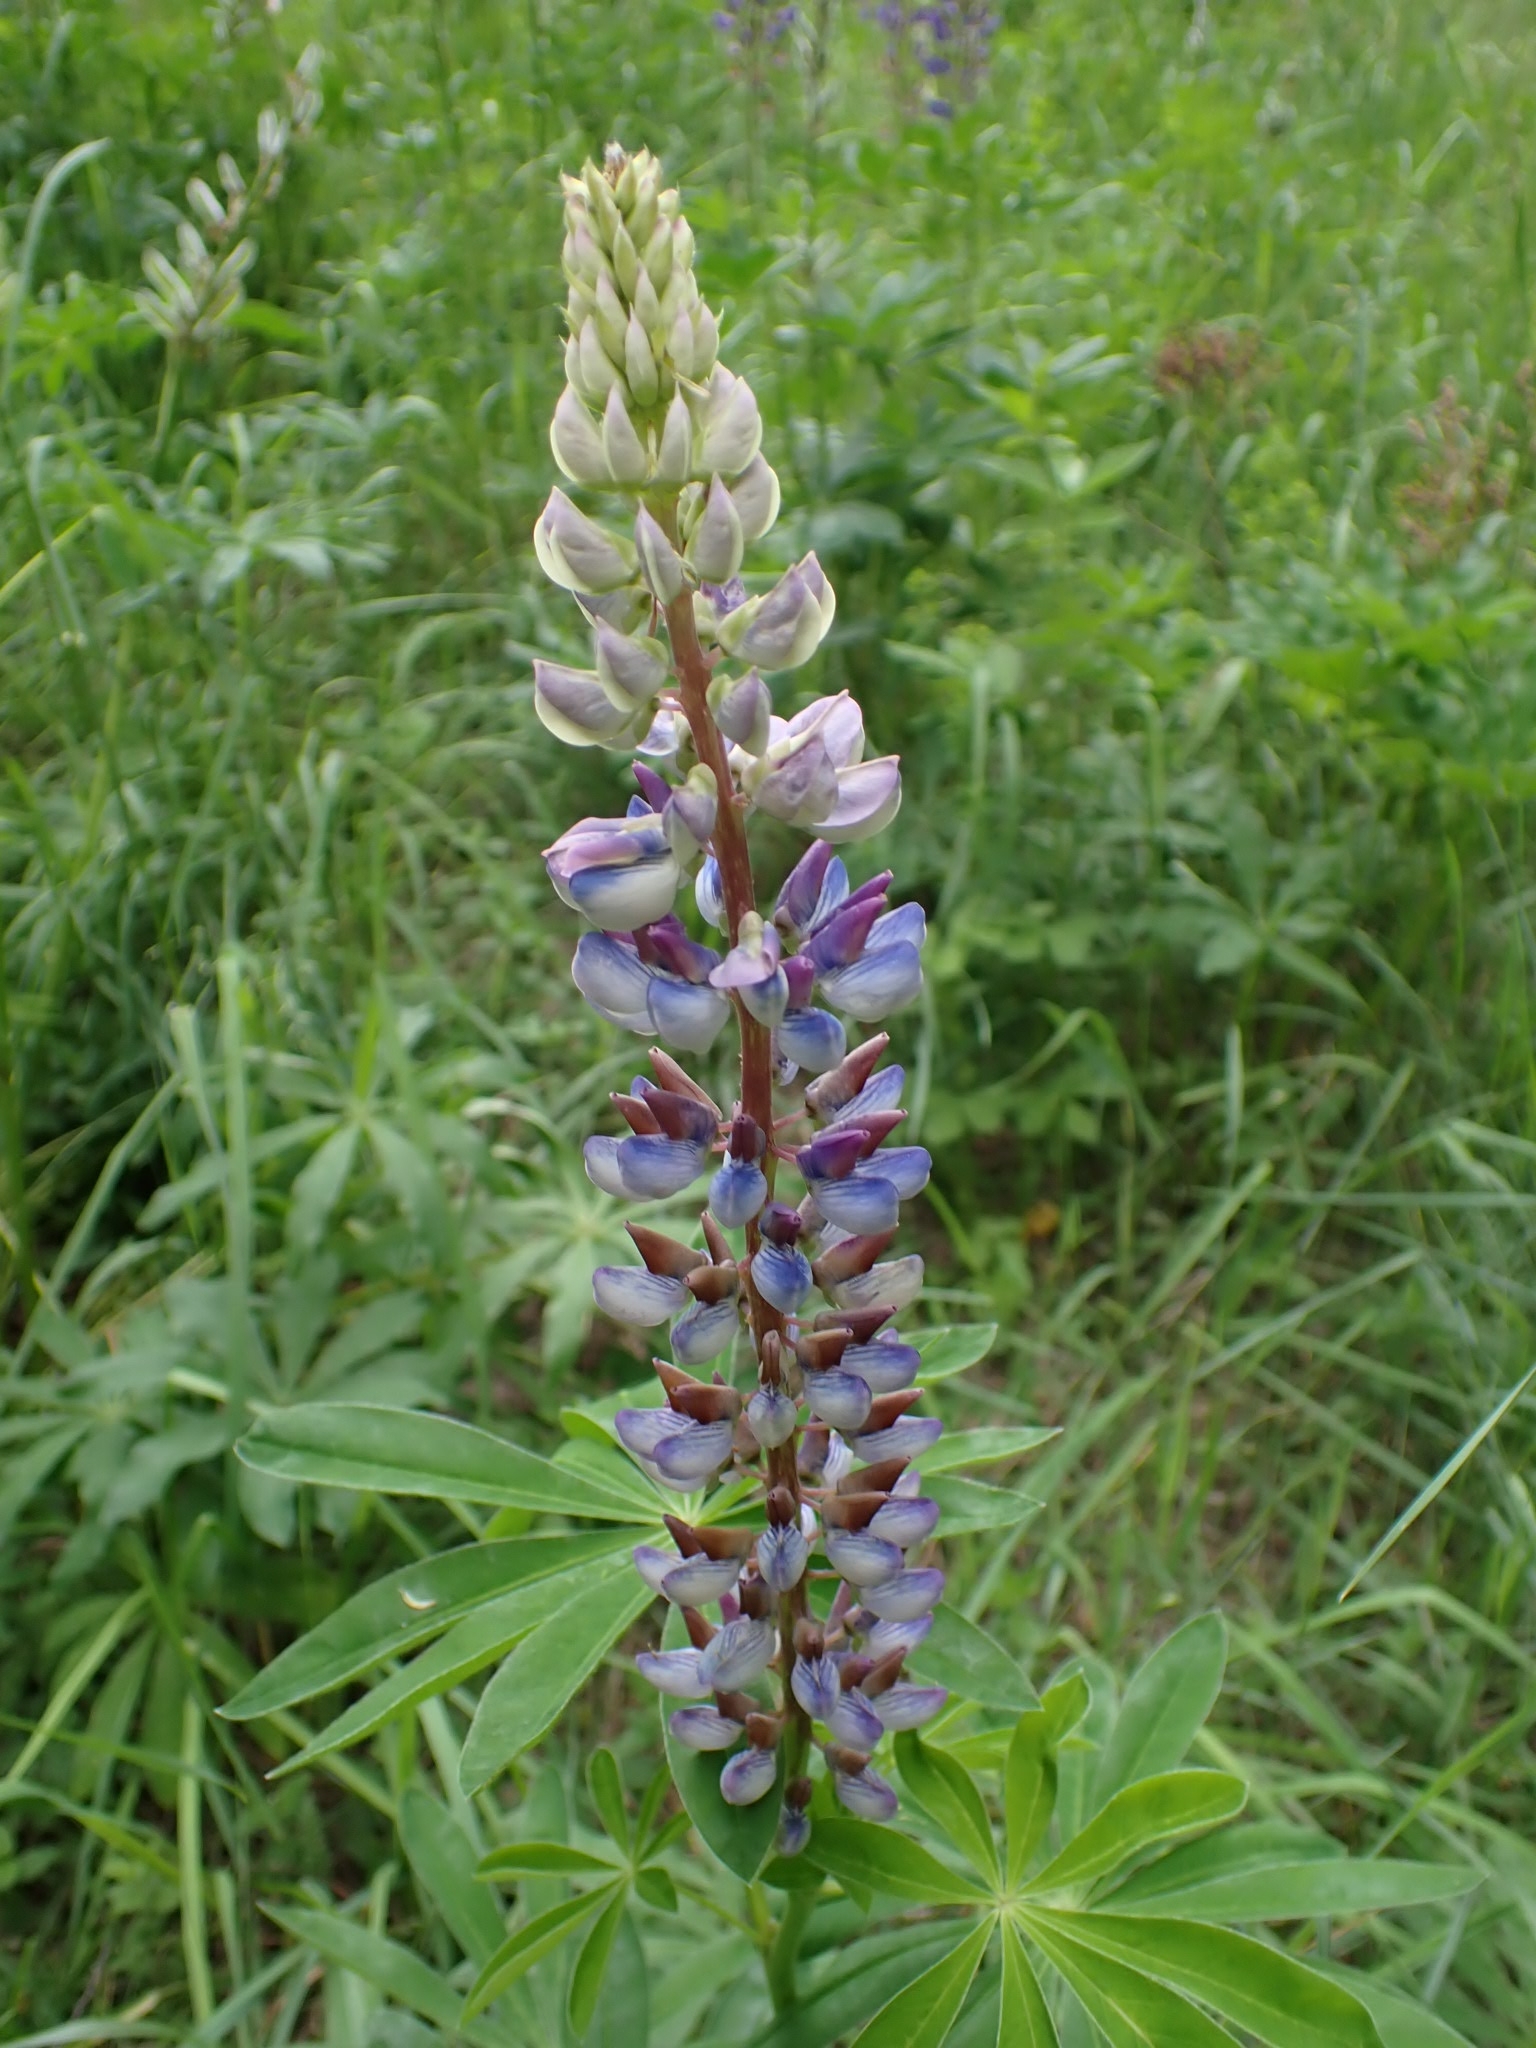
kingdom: Plantae
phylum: Tracheophyta
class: Magnoliopsida
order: Fabales
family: Fabaceae
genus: Lupinus
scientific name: Lupinus polyphyllus
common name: Garden lupin
